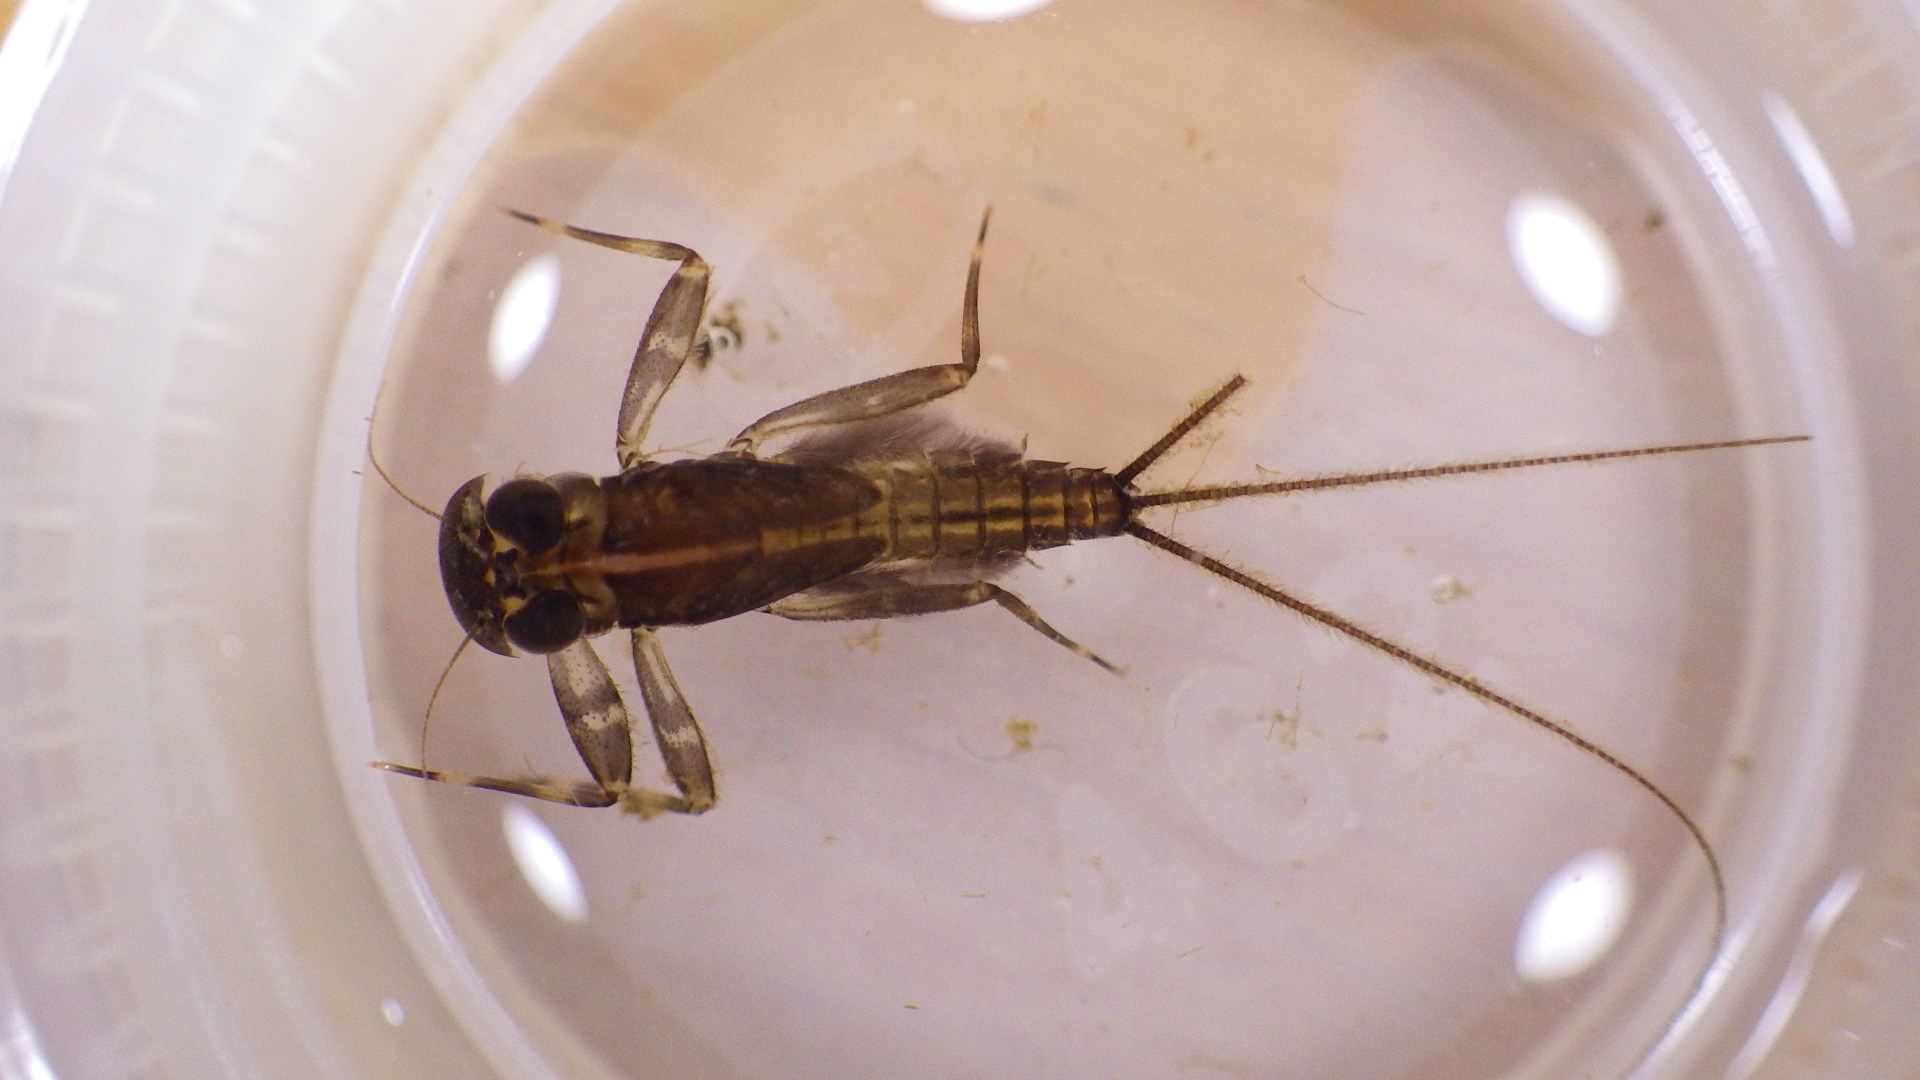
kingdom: Animalia
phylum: Arthropoda
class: Insecta
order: Ephemeroptera
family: Heptageniidae
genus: Stenacron
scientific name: Stenacron interpunctatum
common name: Orange cahill
